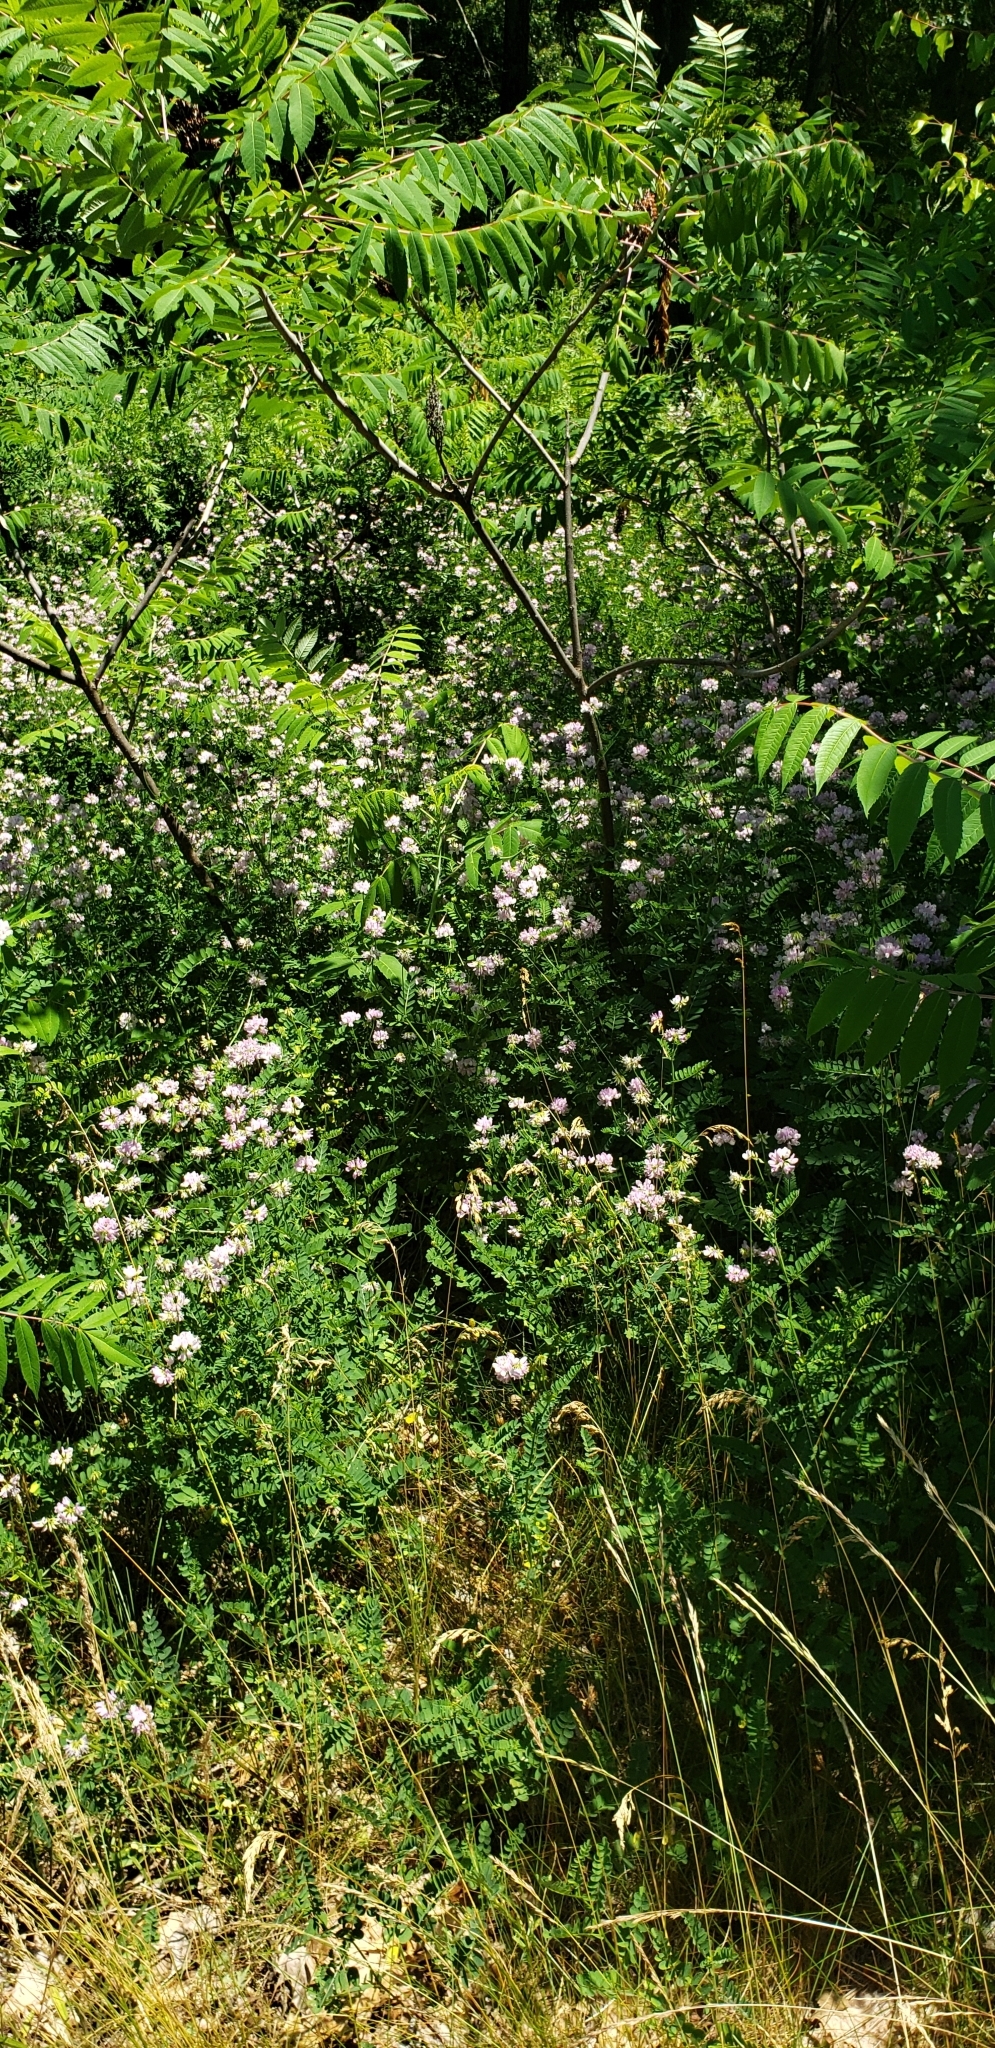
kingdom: Plantae
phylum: Tracheophyta
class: Magnoliopsida
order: Fabales
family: Fabaceae
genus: Coronilla
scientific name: Coronilla varia
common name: Crownvetch
